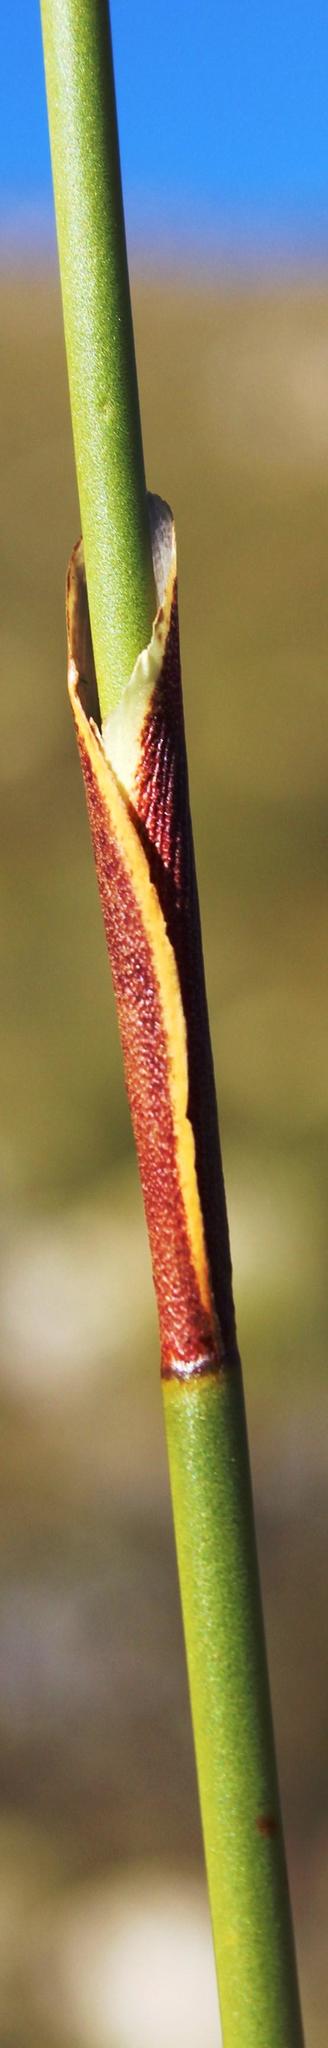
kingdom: Plantae
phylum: Tracheophyta
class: Liliopsida
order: Poales
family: Restionaceae
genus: Hypodiscus
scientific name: Hypodiscus aristatus
